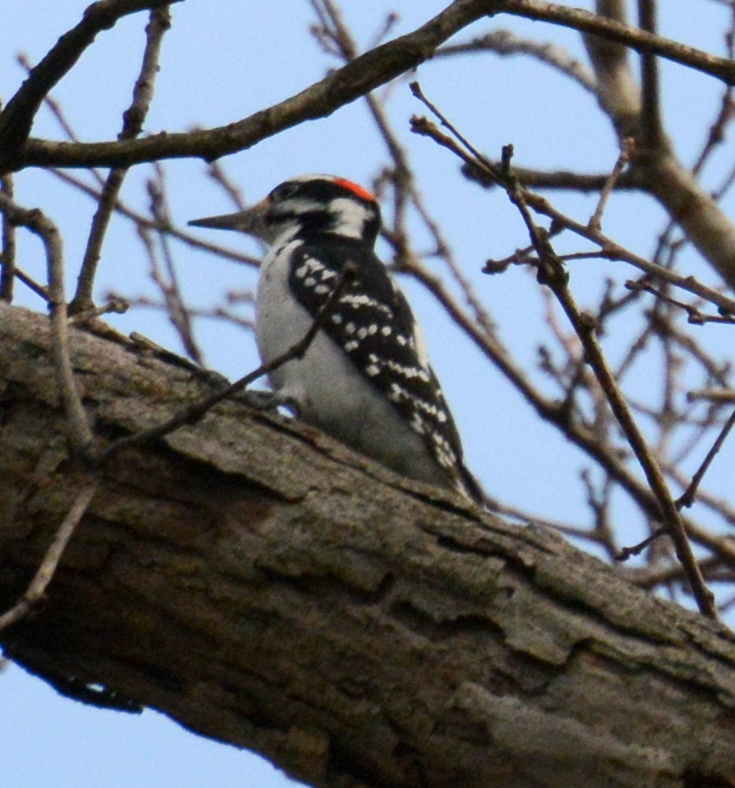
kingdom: Animalia
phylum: Chordata
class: Aves
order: Piciformes
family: Picidae
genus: Leuconotopicus
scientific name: Leuconotopicus villosus
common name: Hairy woodpecker
